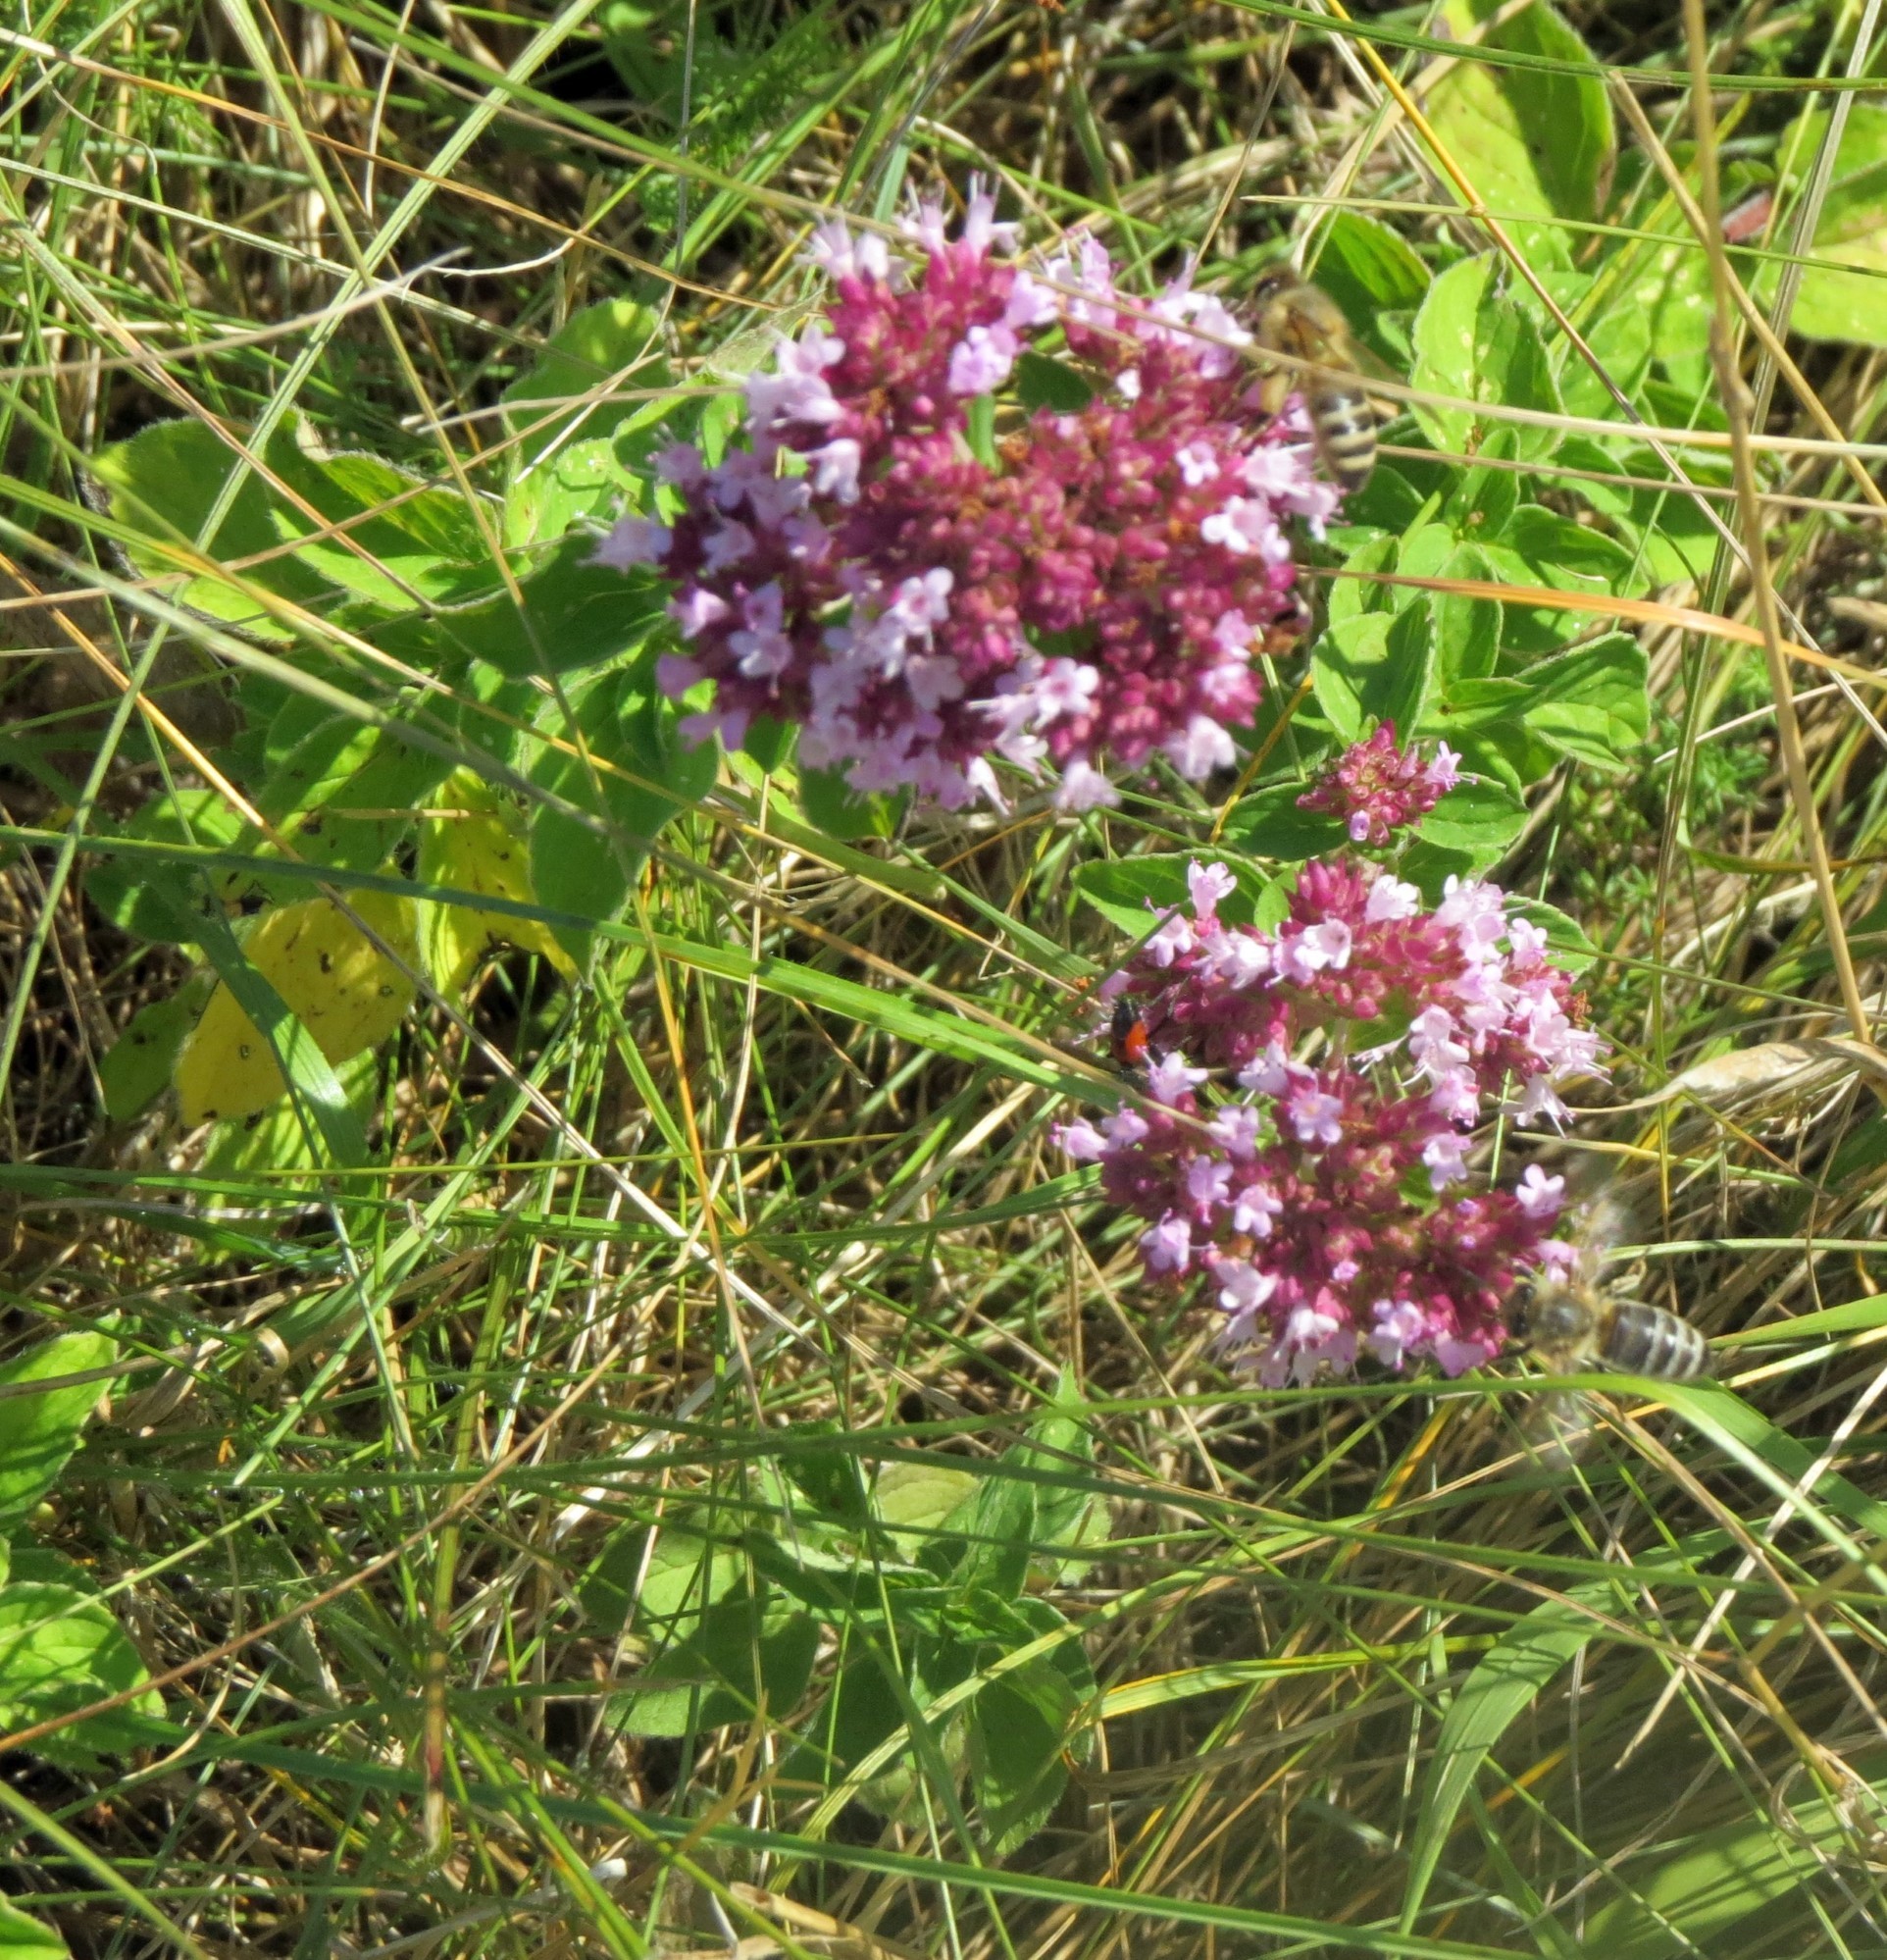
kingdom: Plantae
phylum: Tracheophyta
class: Magnoliopsida
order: Lamiales
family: Lamiaceae
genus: Origanum
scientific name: Origanum vulgare
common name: Wild marjoram
